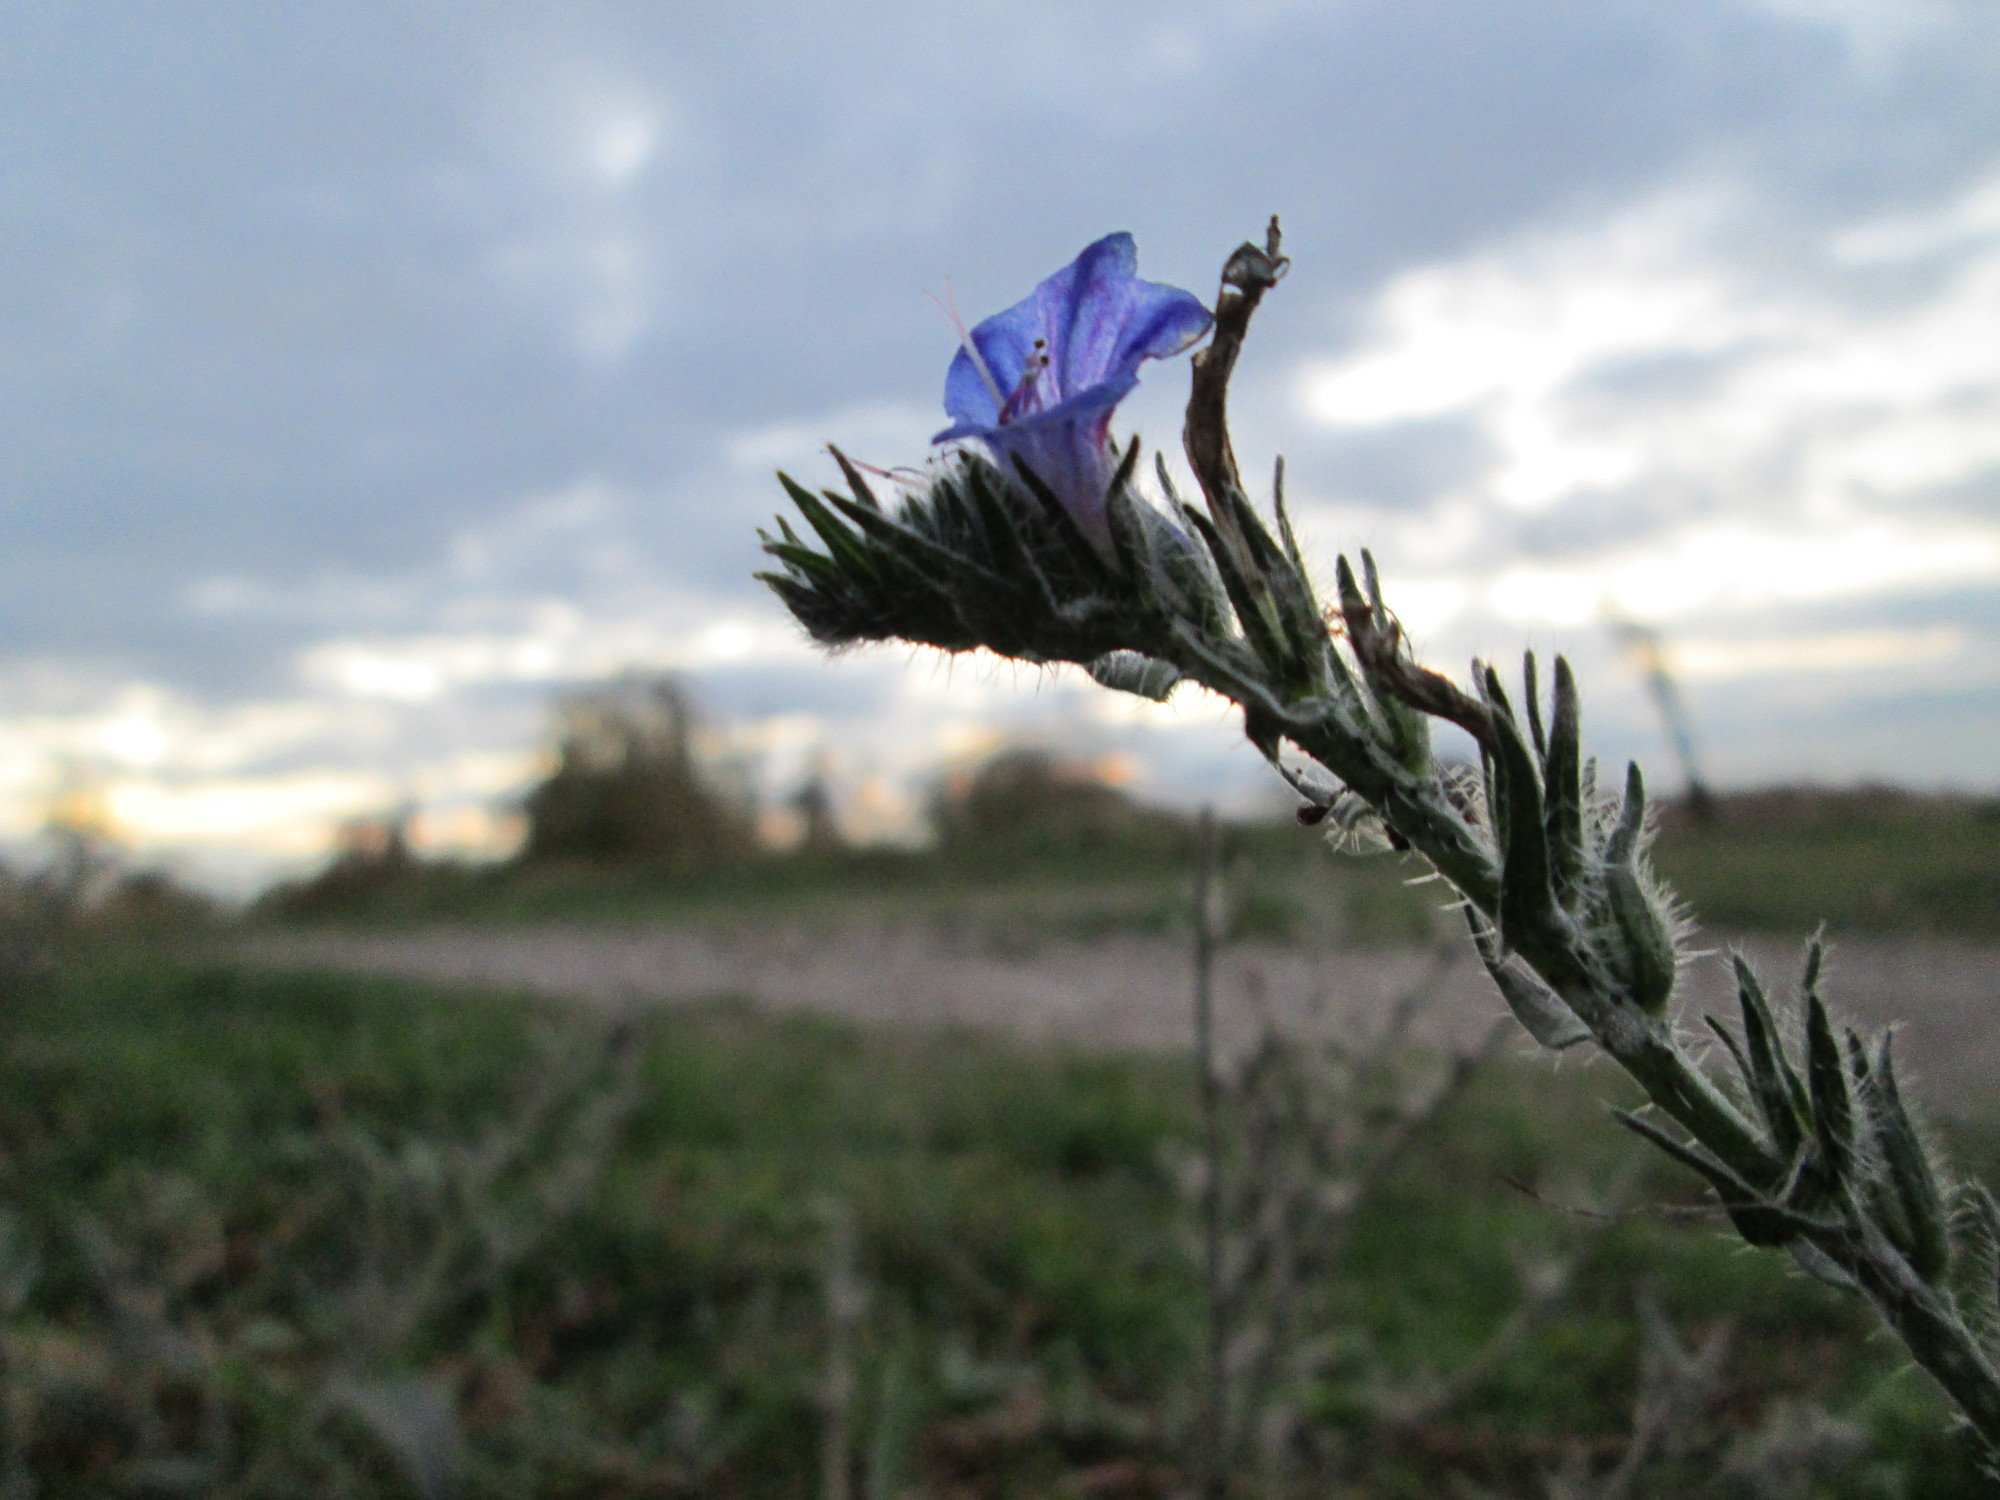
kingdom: Plantae
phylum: Tracheophyta
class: Magnoliopsida
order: Boraginales
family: Boraginaceae
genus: Echium
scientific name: Echium vulgare
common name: Common viper's bugloss
